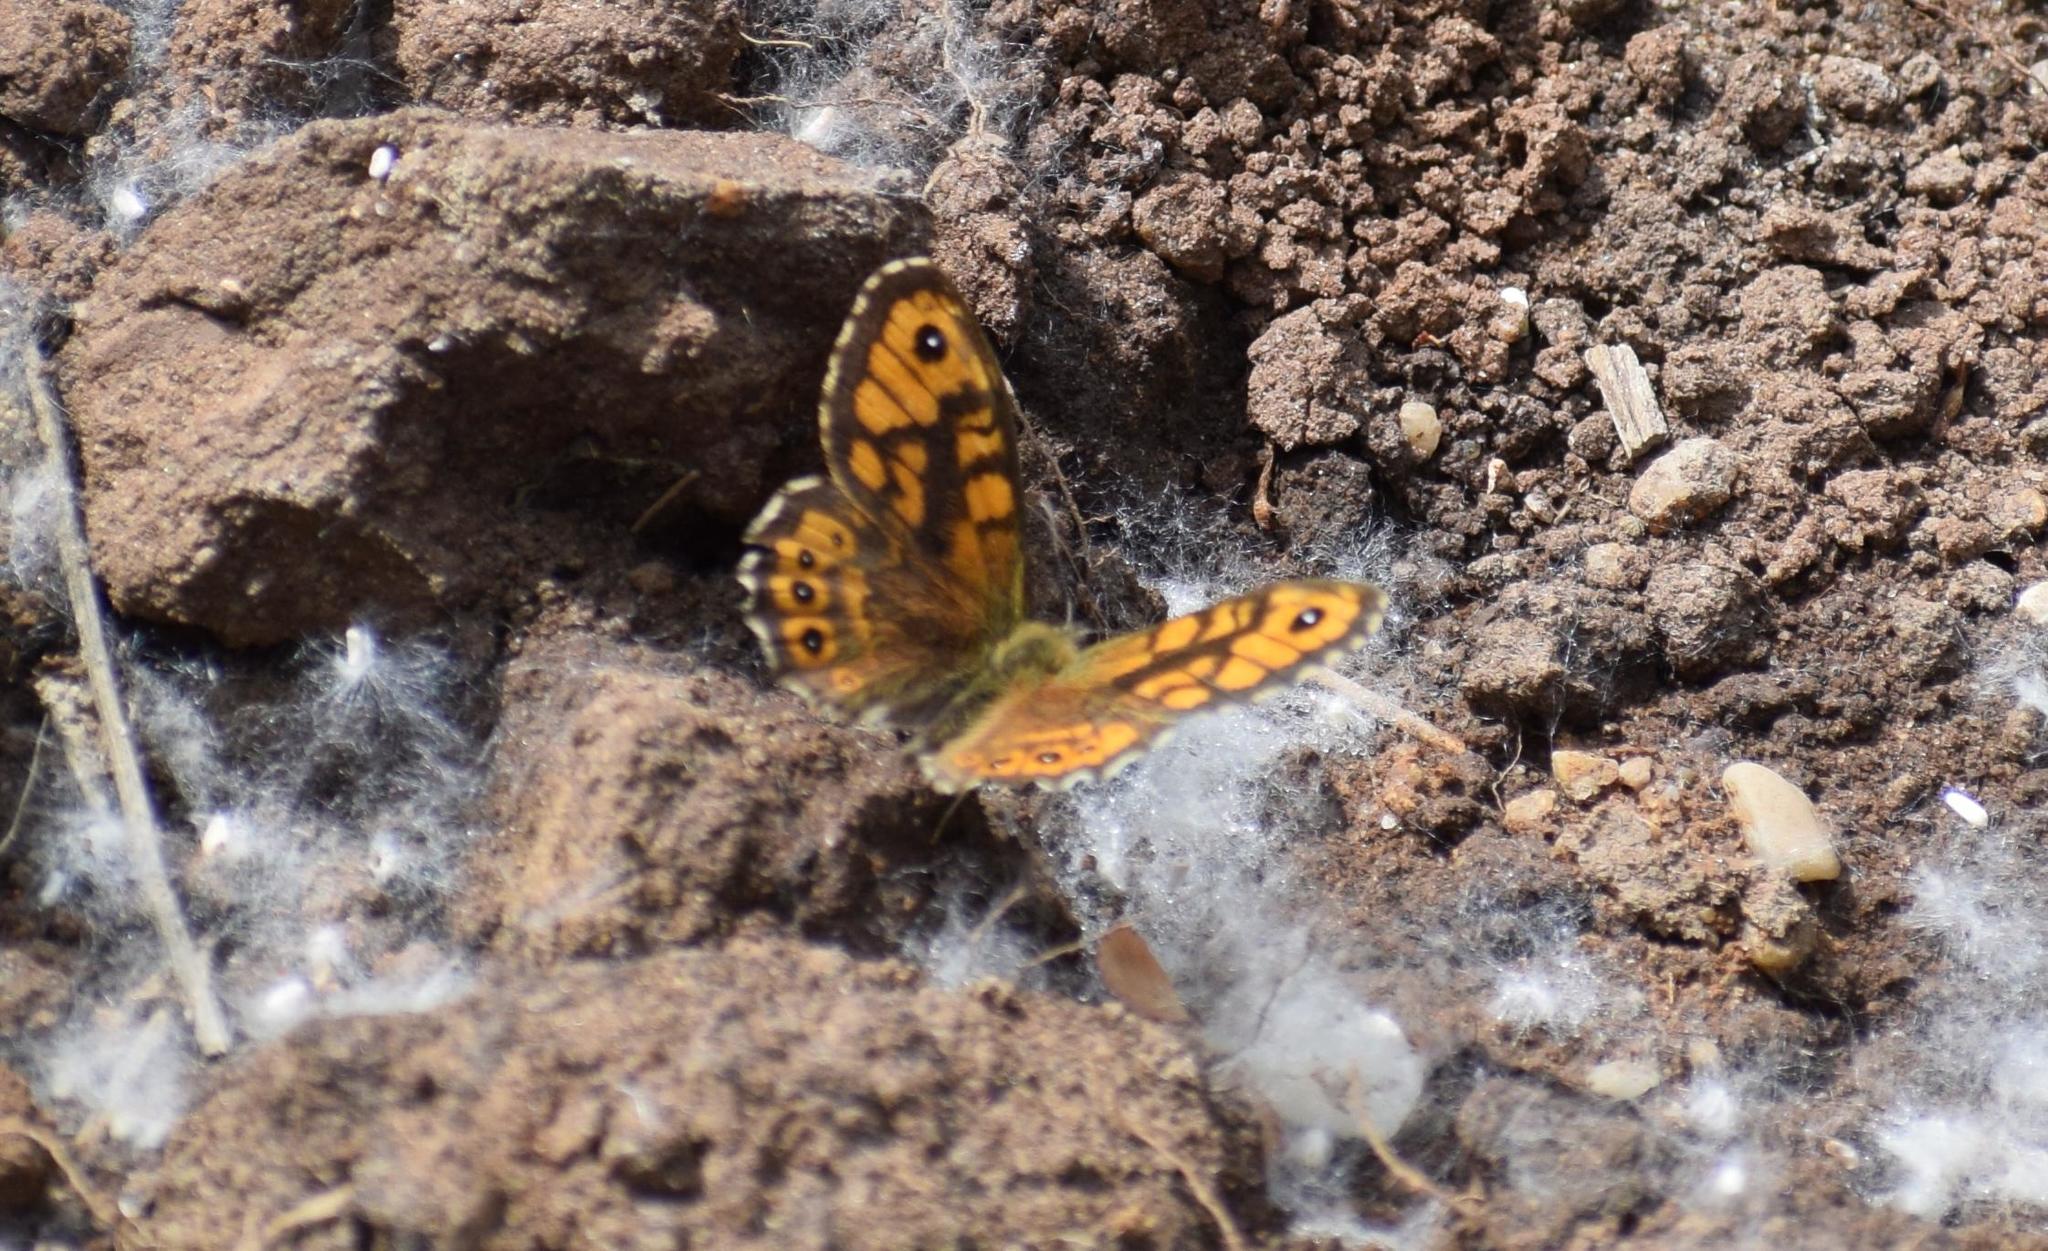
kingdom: Animalia
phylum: Arthropoda
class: Insecta
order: Lepidoptera
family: Nymphalidae
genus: Pararge
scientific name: Pararge Lasiommata megera
